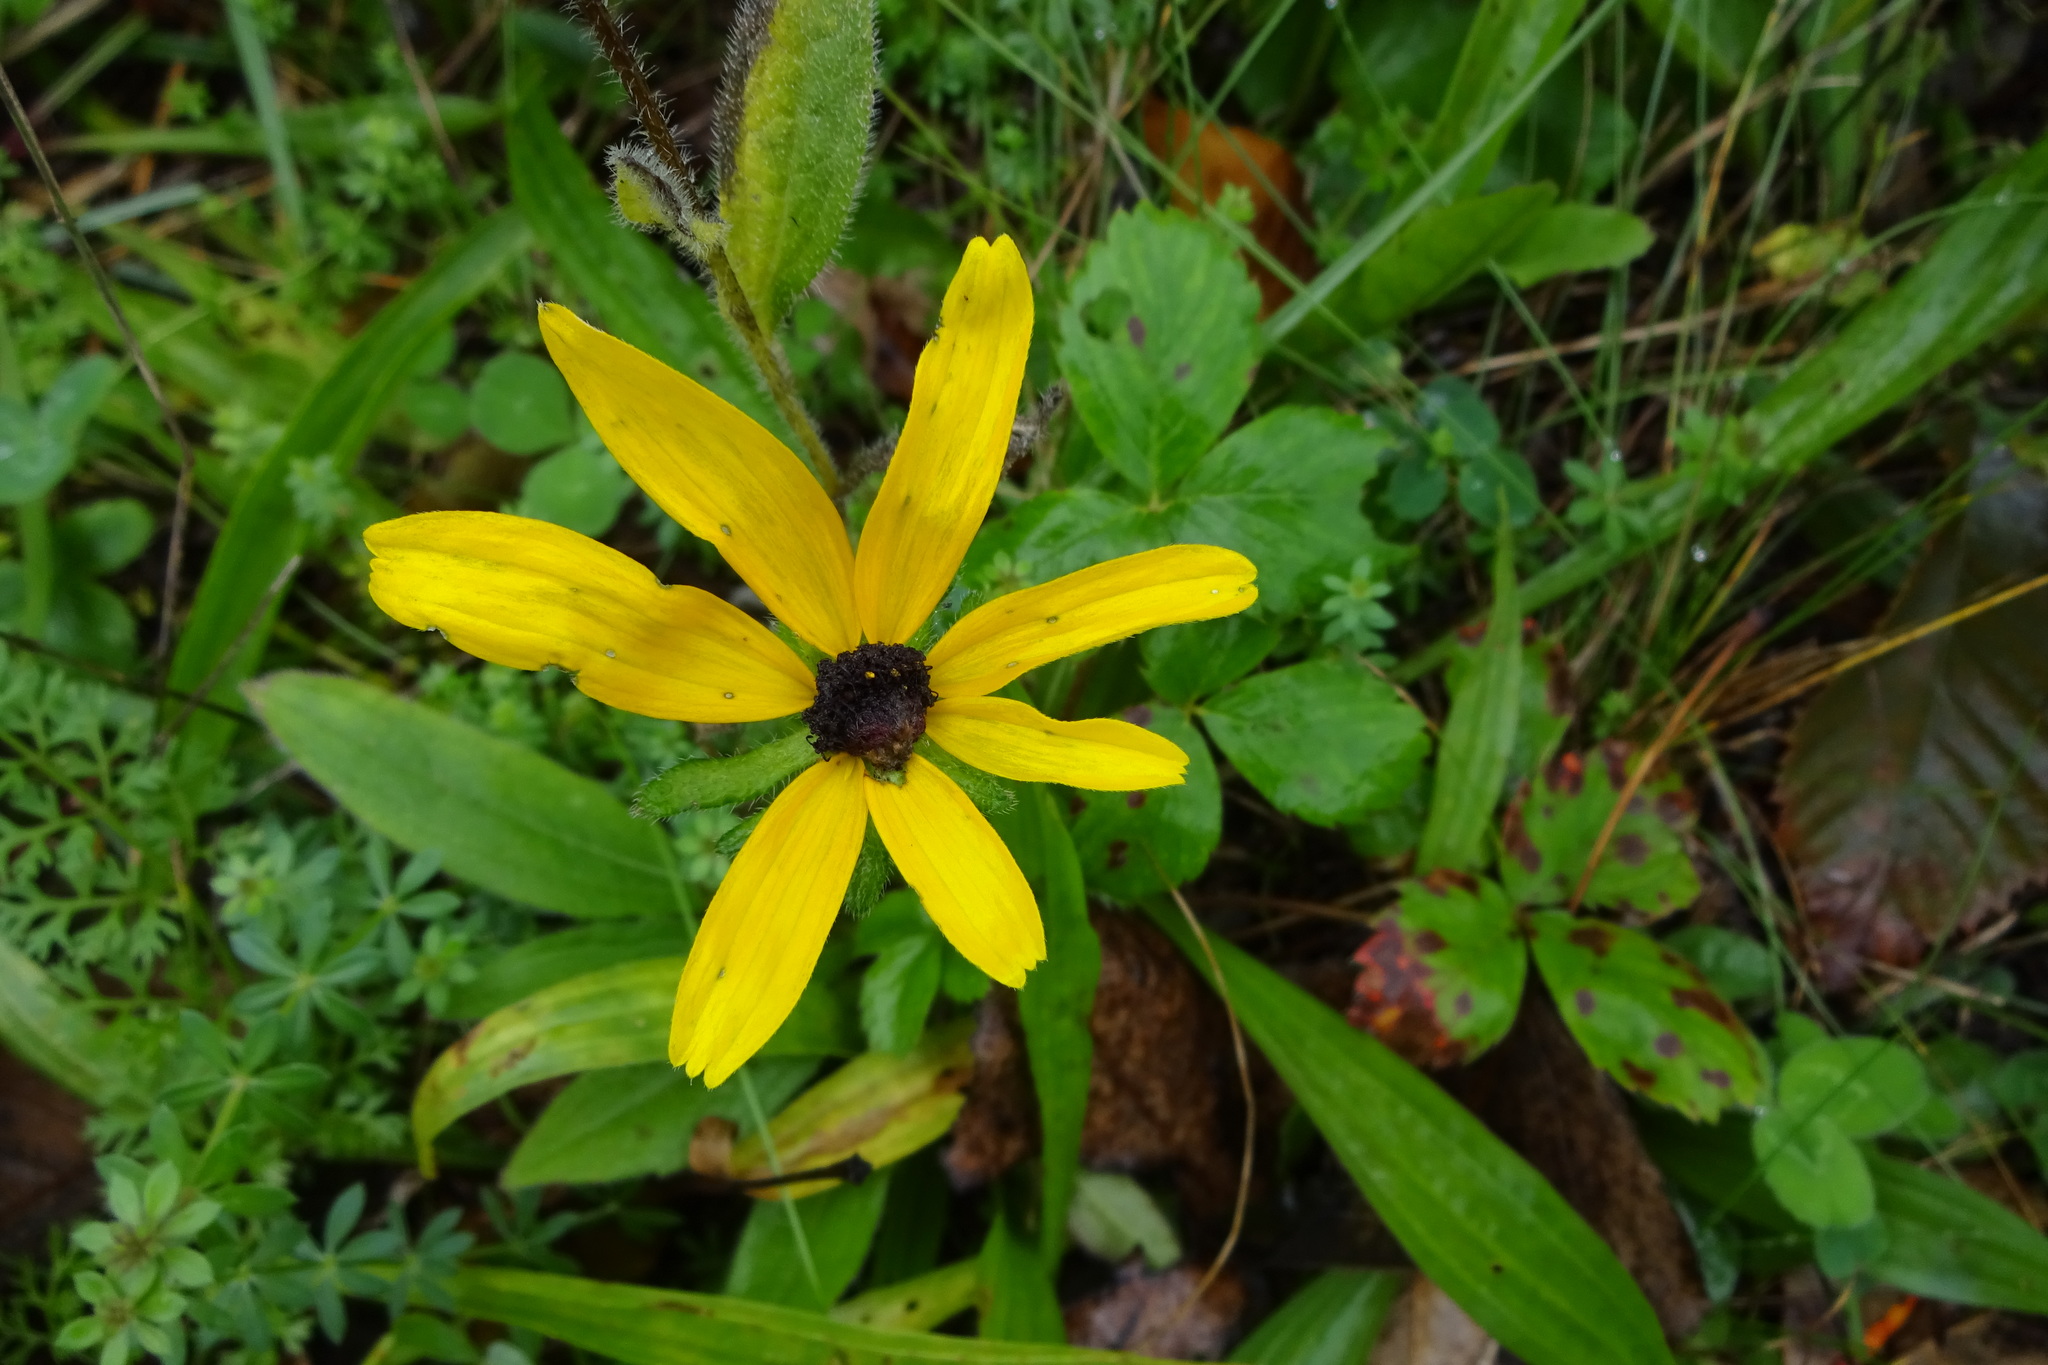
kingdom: Plantae
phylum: Tracheophyta
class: Magnoliopsida
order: Asterales
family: Asteraceae
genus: Rudbeckia
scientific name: Rudbeckia hirta
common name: Black-eyed-susan
